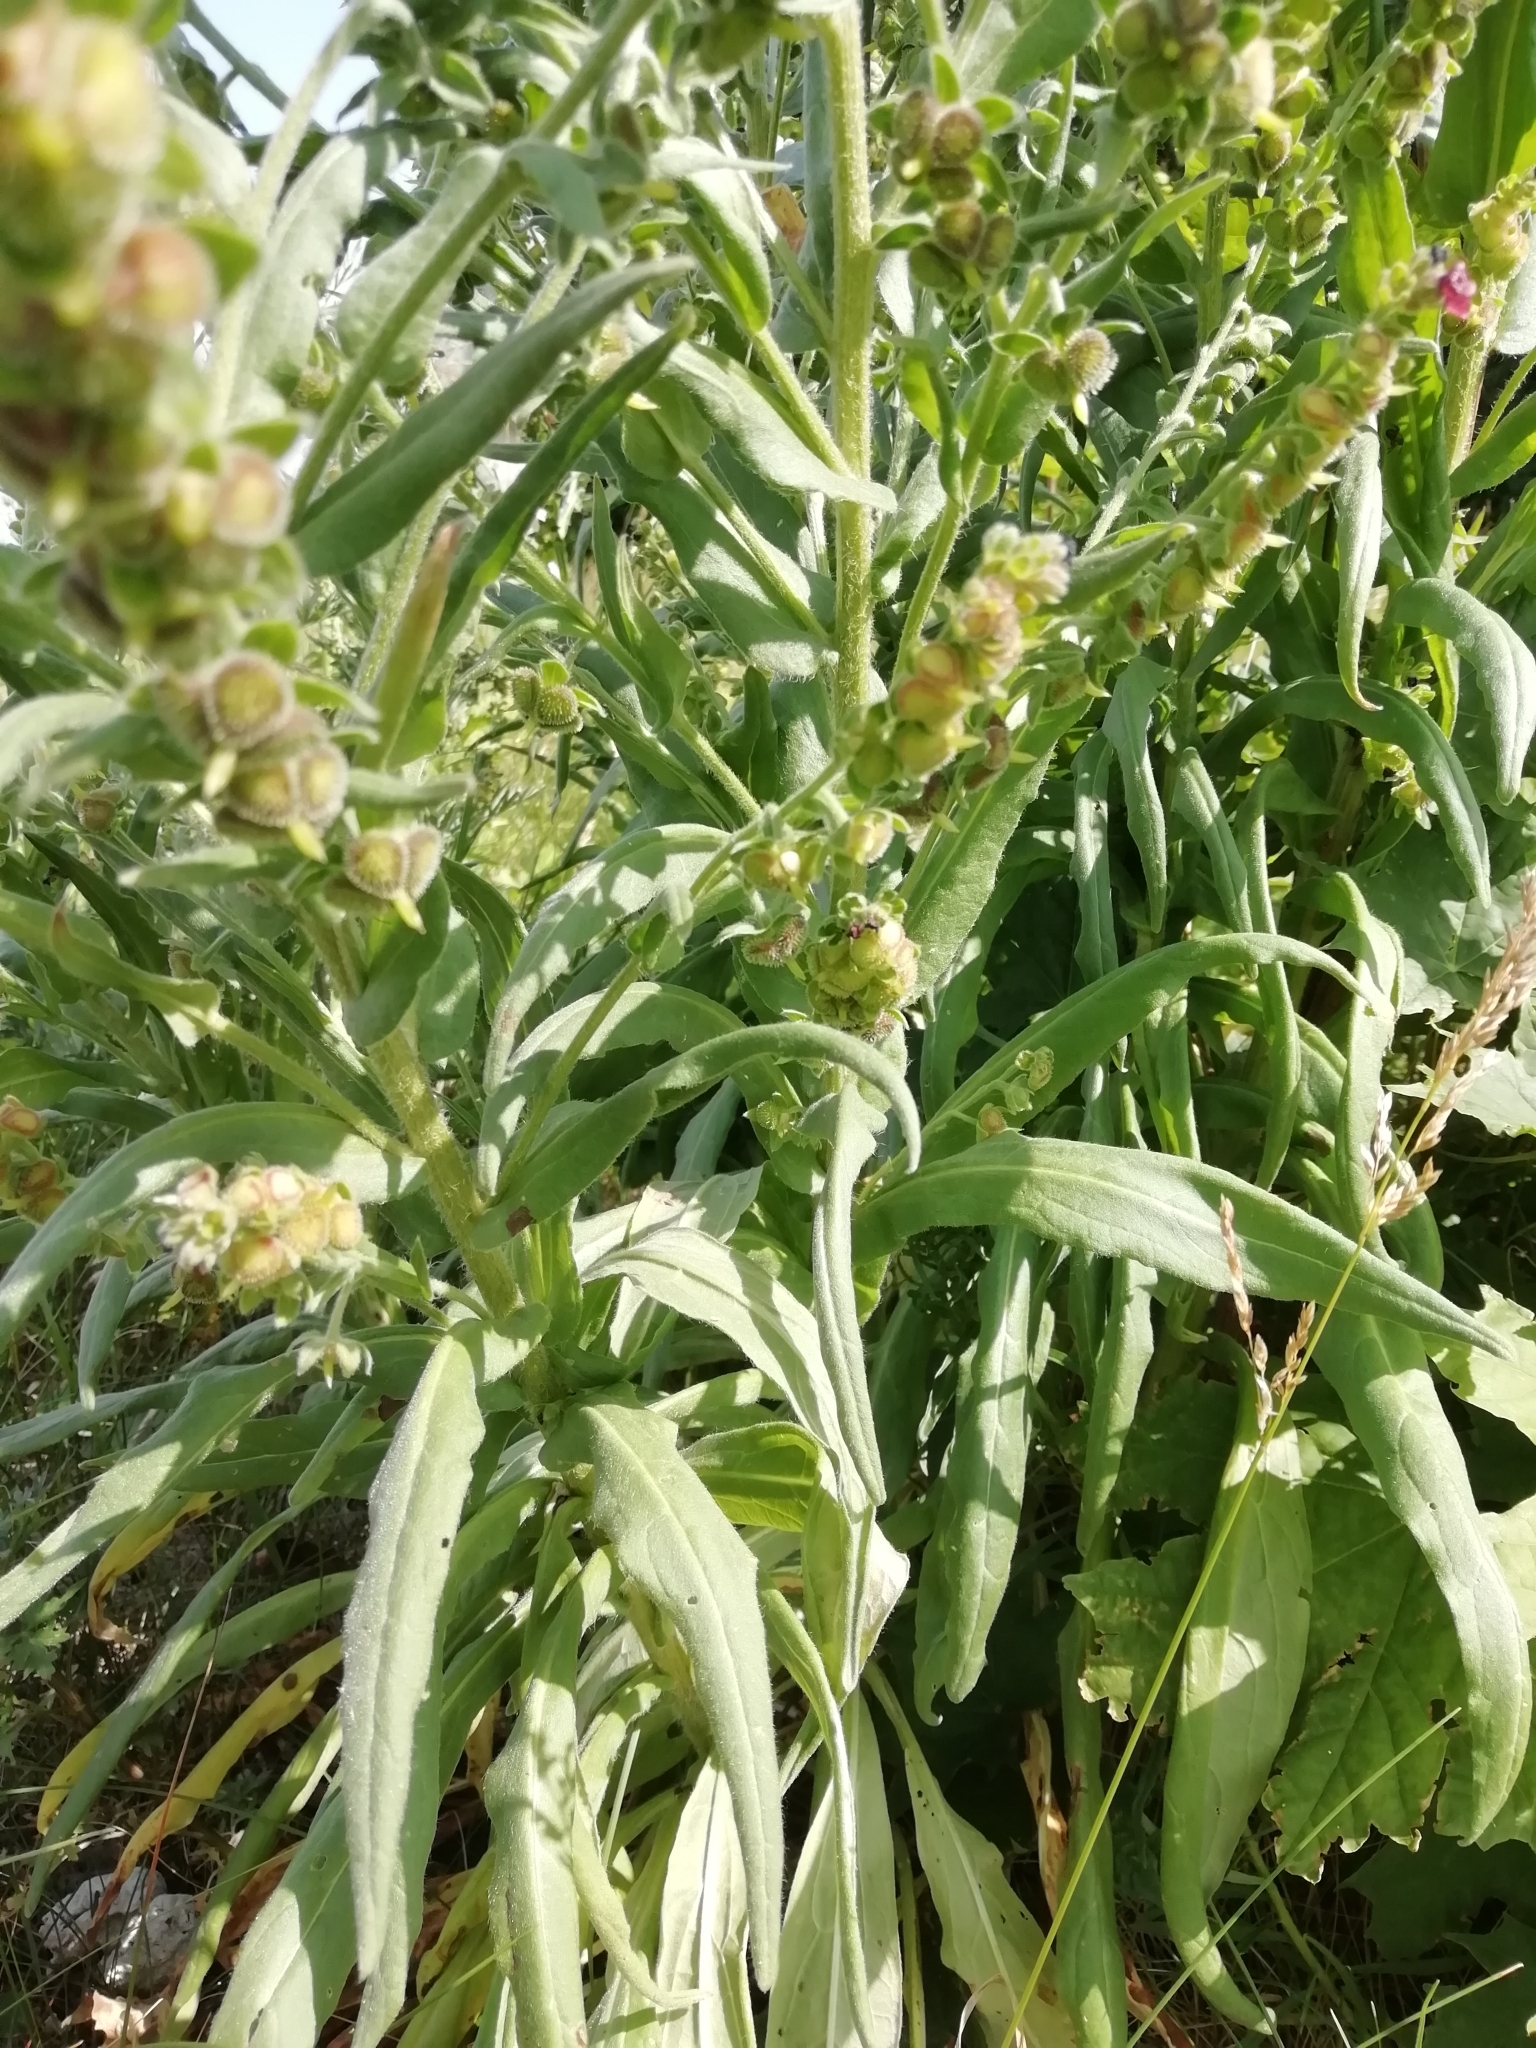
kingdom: Plantae
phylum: Tracheophyta
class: Magnoliopsida
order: Boraginales
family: Boraginaceae
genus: Cynoglossum
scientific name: Cynoglossum officinale
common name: Hound's-tongue
